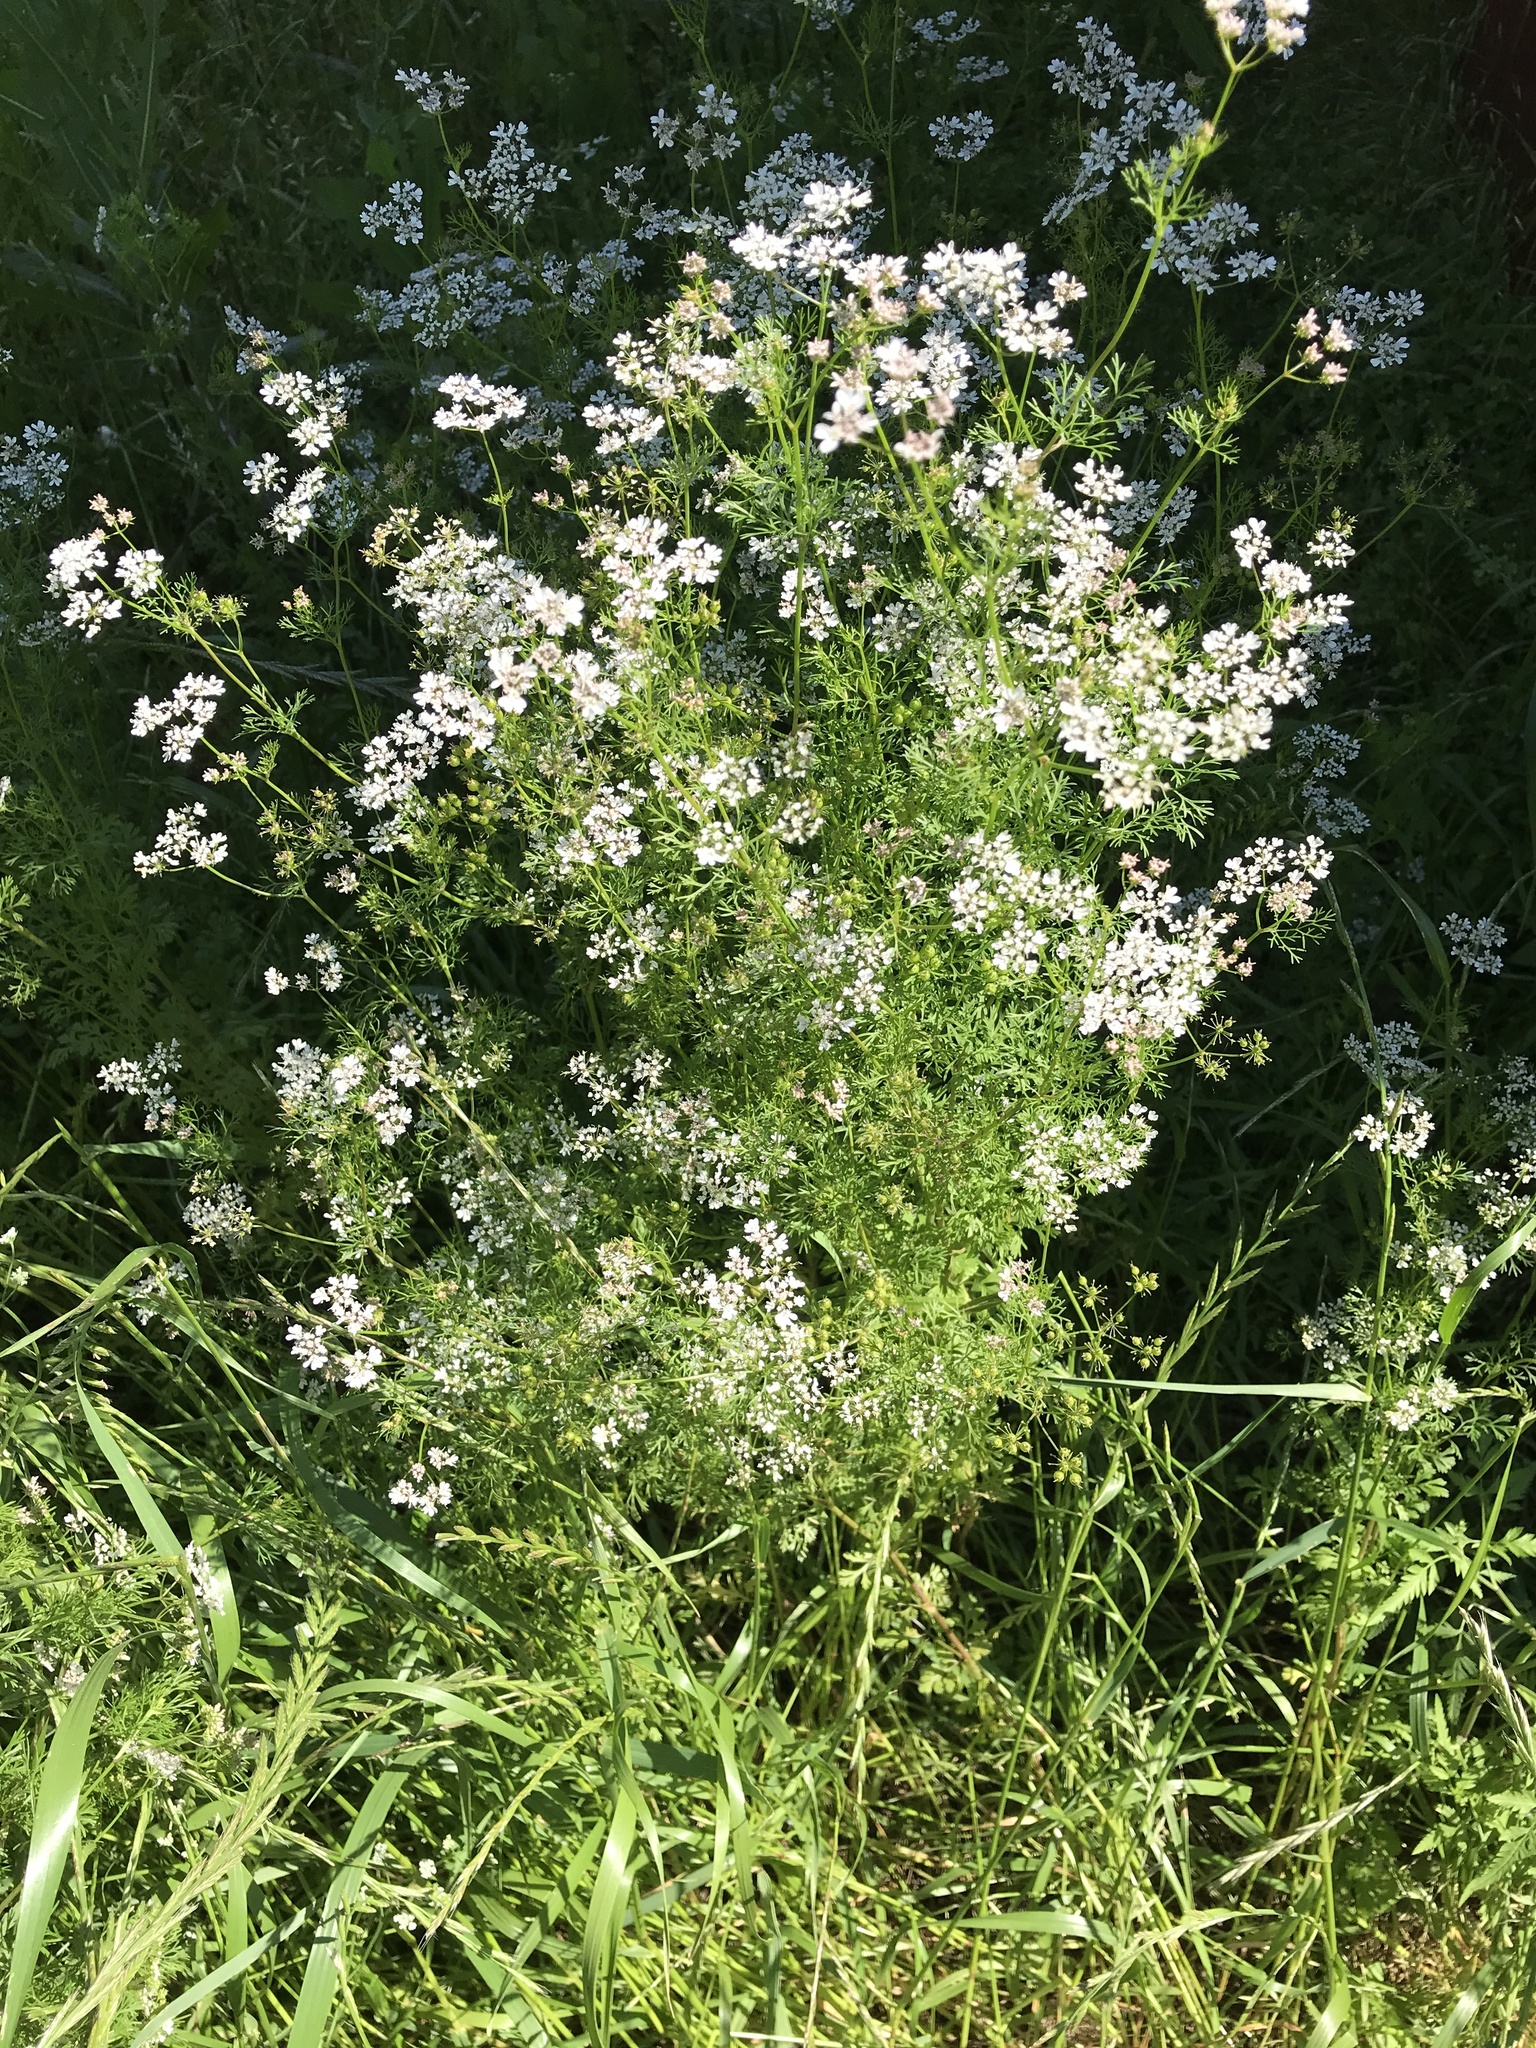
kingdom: Plantae
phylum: Tracheophyta
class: Magnoliopsida
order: Apiales
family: Apiaceae
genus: Coriandrum
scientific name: Coriandrum sativum
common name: Coriander
